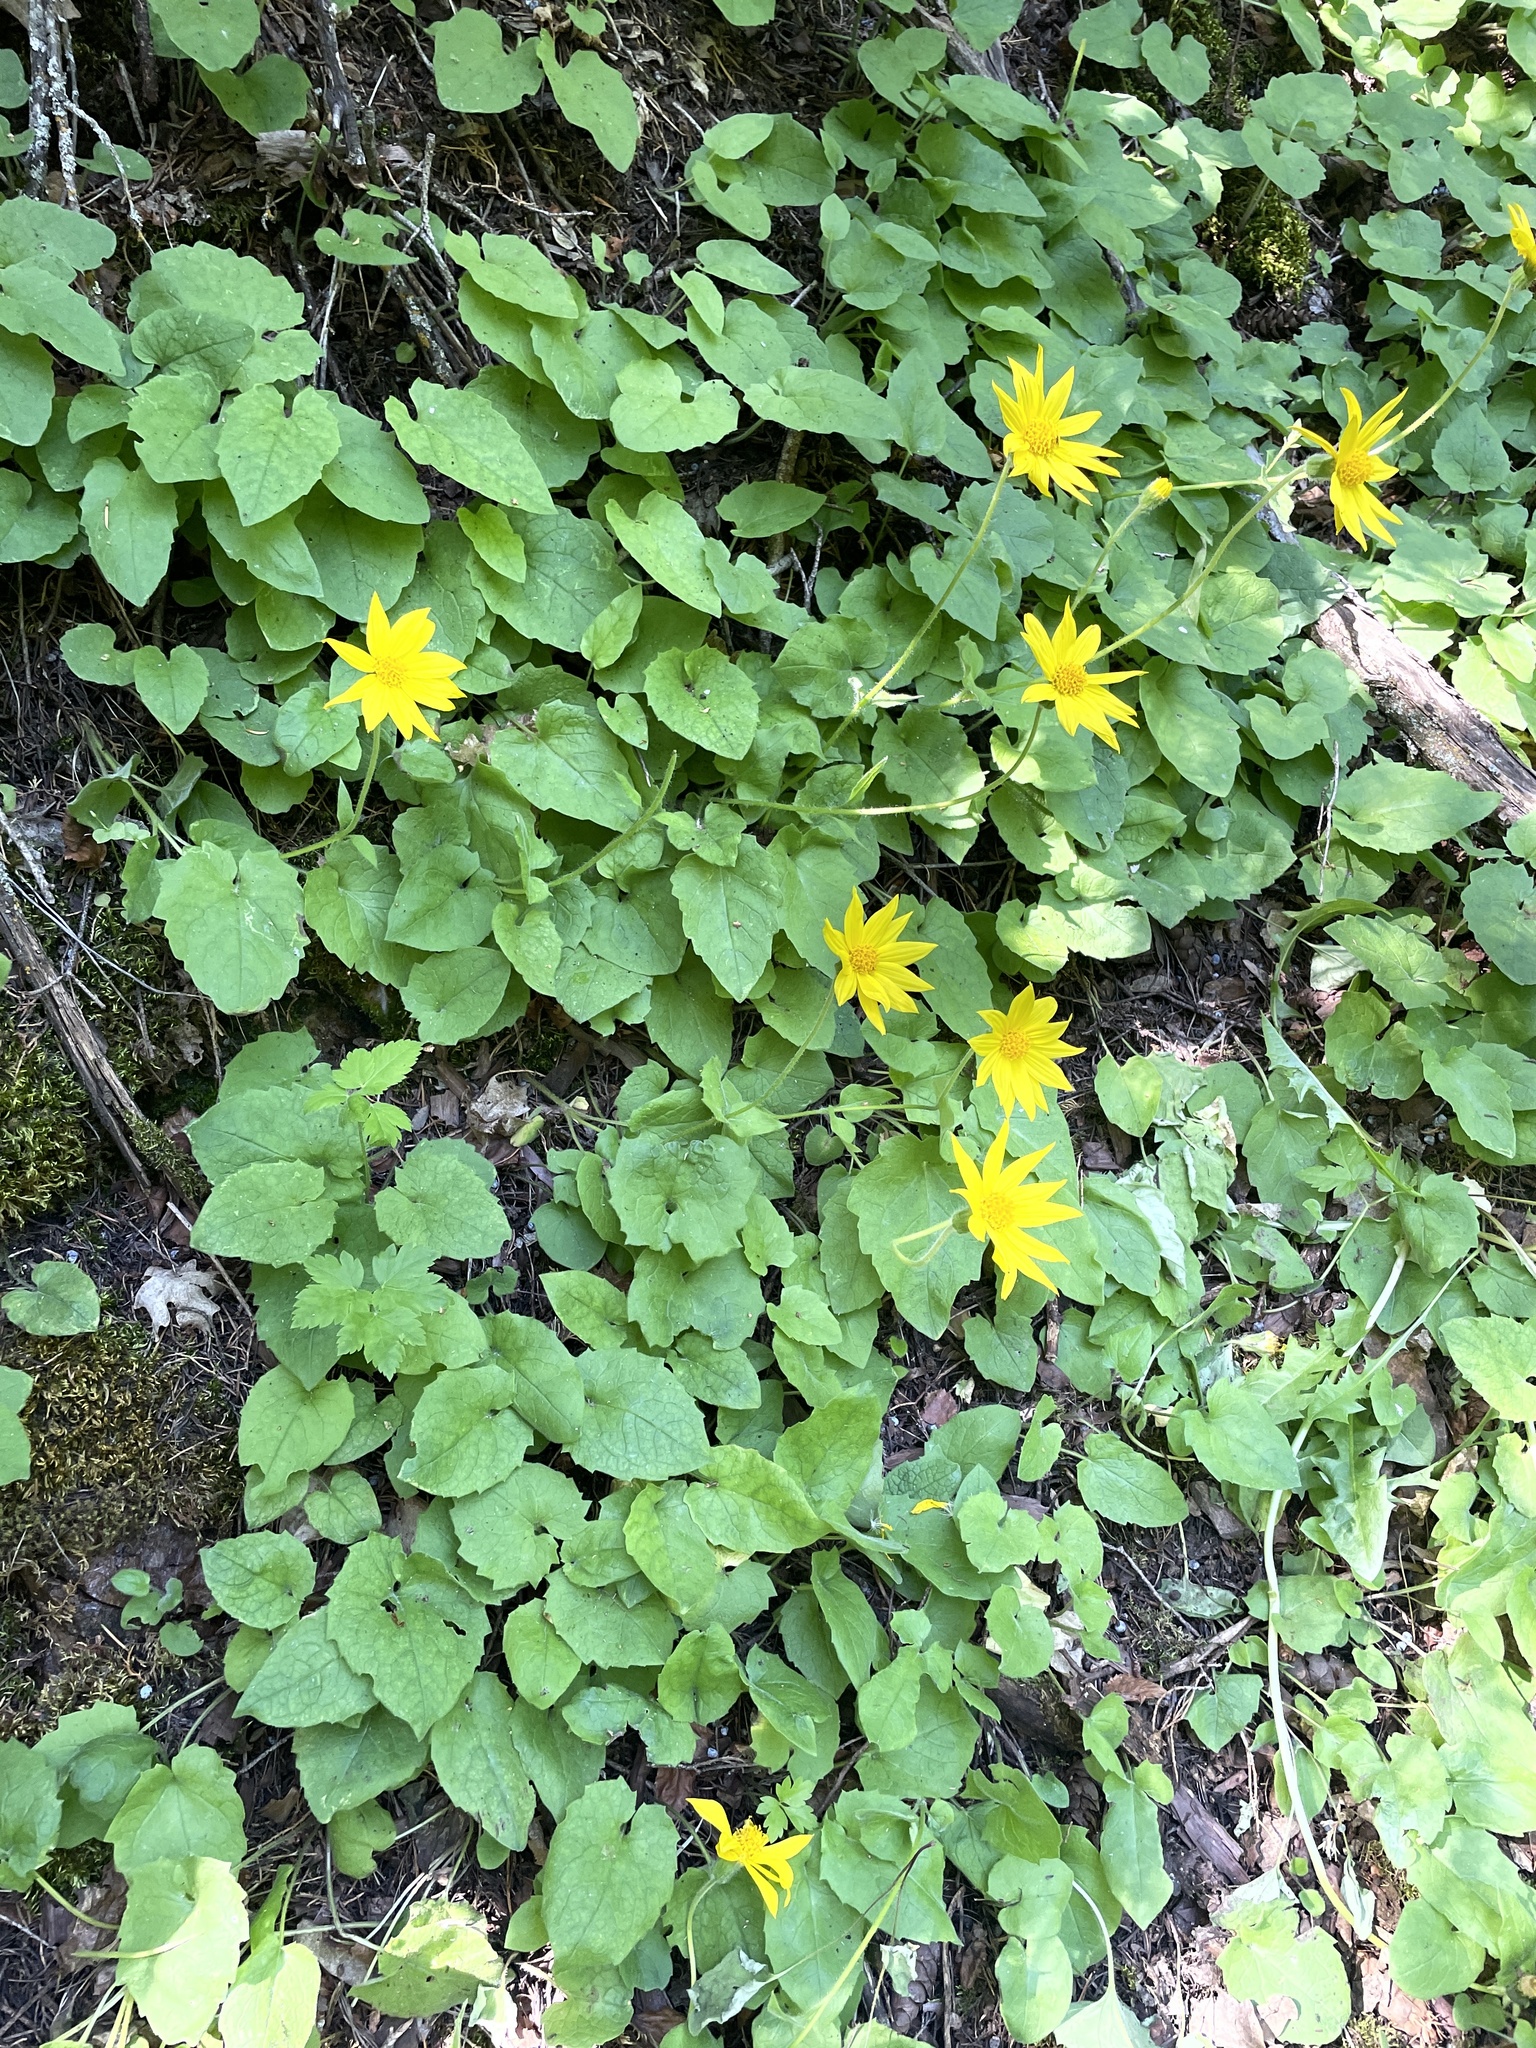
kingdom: Plantae
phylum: Tracheophyta
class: Magnoliopsida
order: Asterales
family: Asteraceae
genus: Arnica
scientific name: Arnica cordifolia
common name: Heart-leaf arnica
